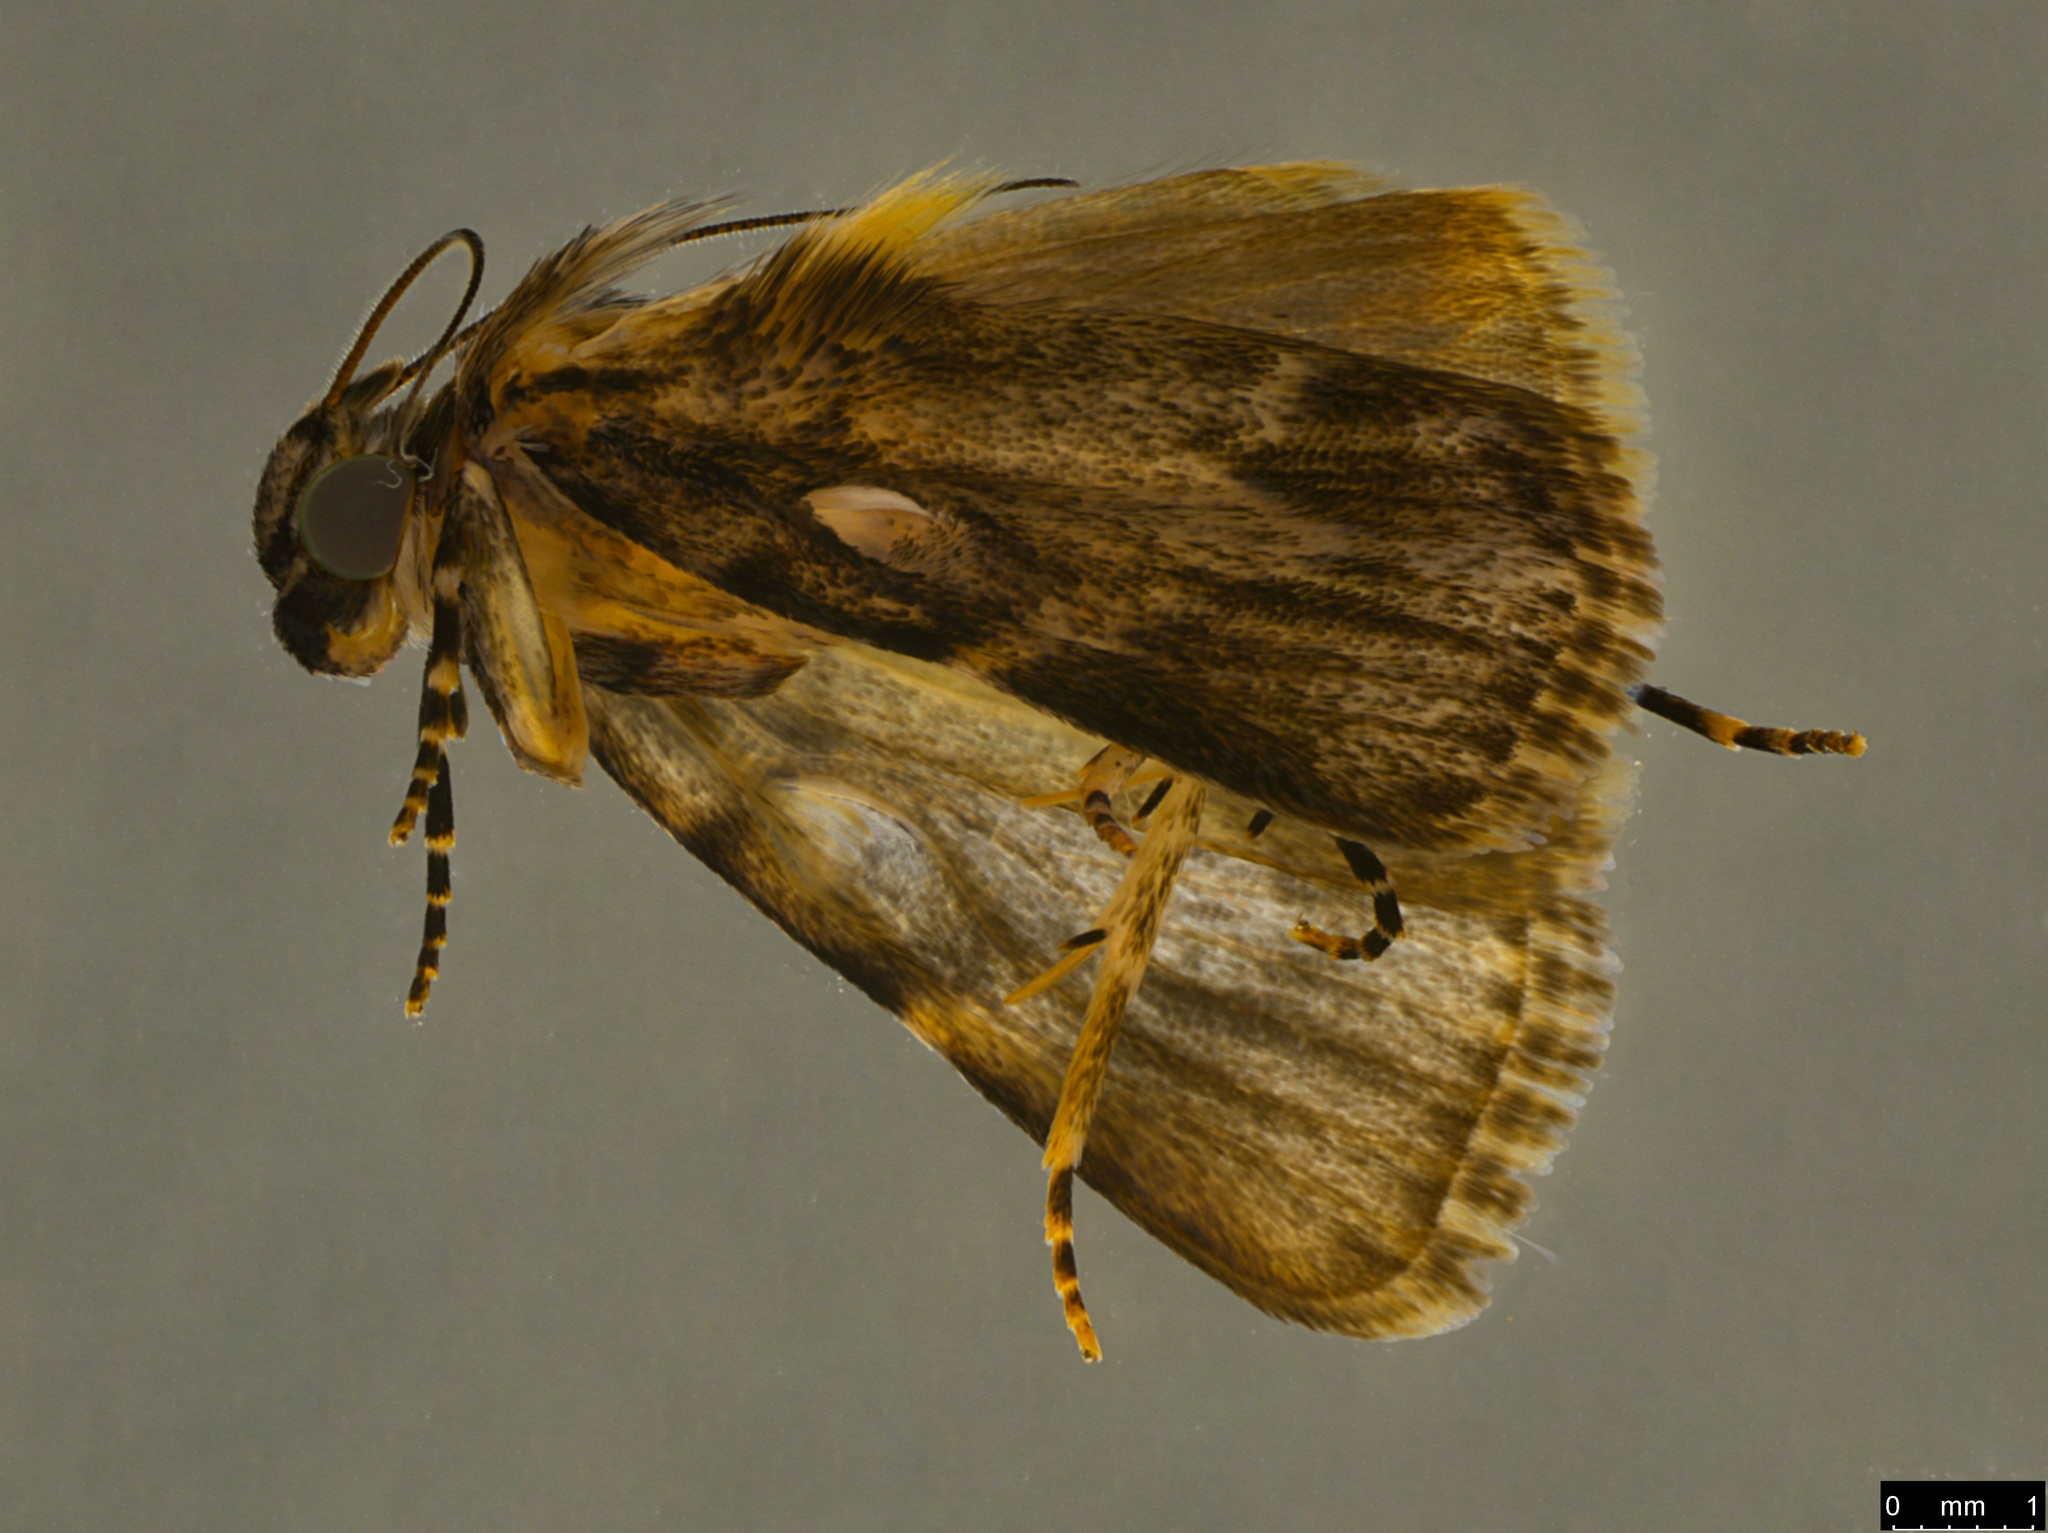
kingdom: Animalia
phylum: Arthropoda
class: Insecta
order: Lepidoptera
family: Pyralidae
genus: Spectrotrota
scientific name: Spectrotrota fimbrialis
